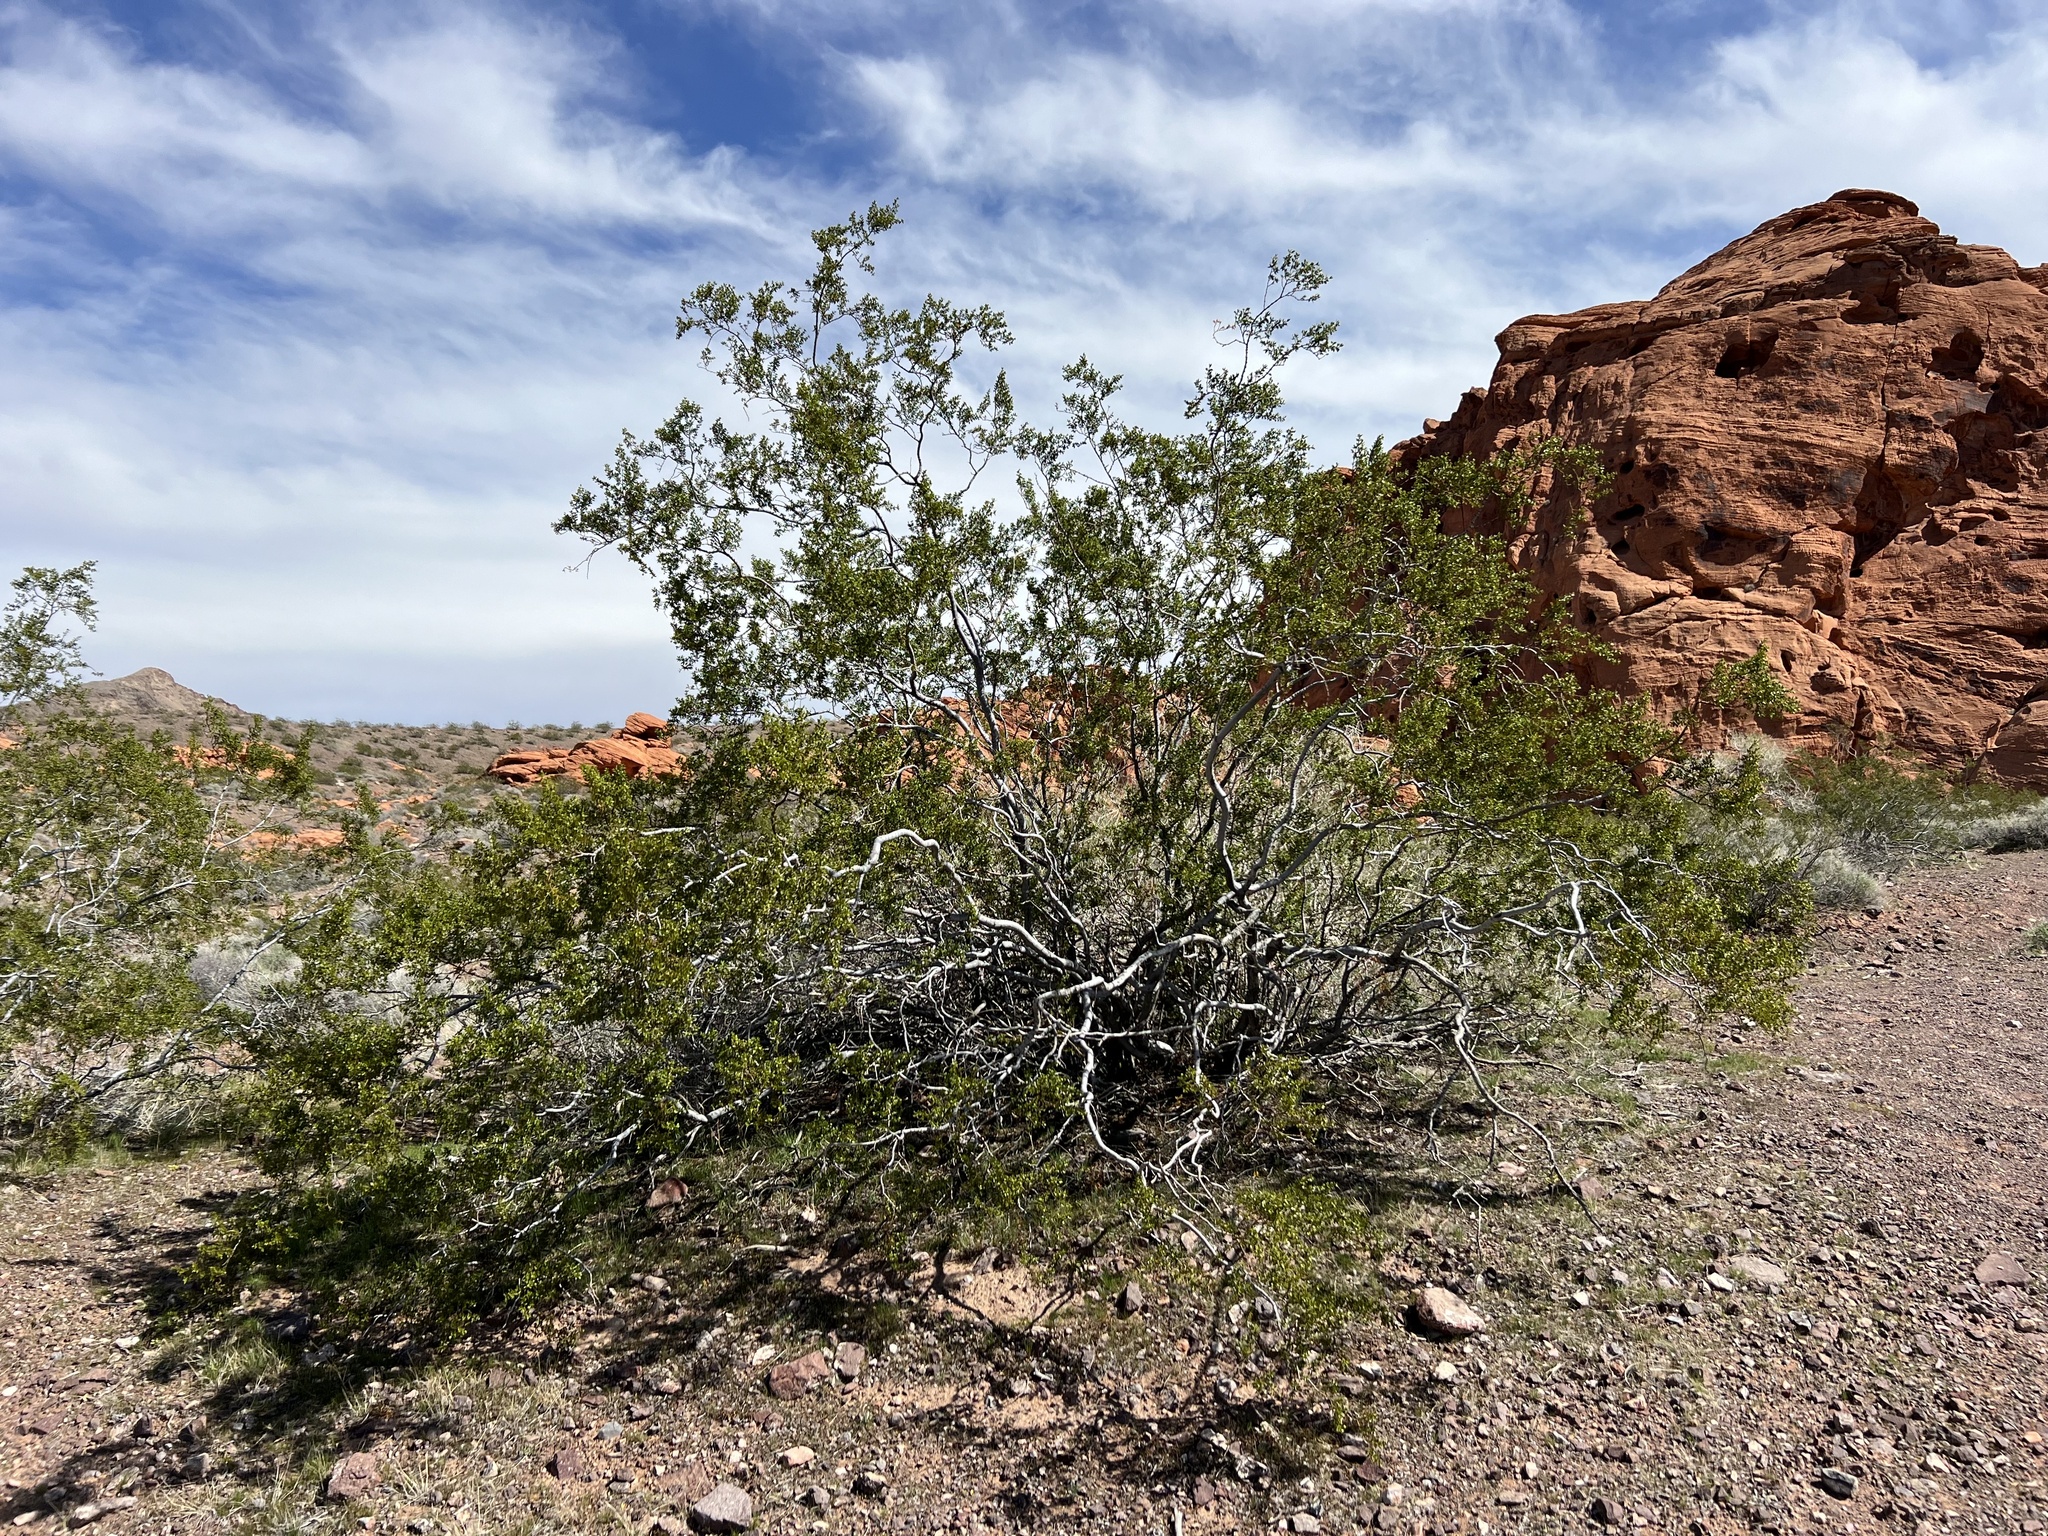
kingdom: Plantae
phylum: Tracheophyta
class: Magnoliopsida
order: Zygophyllales
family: Zygophyllaceae
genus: Larrea
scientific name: Larrea tridentata
